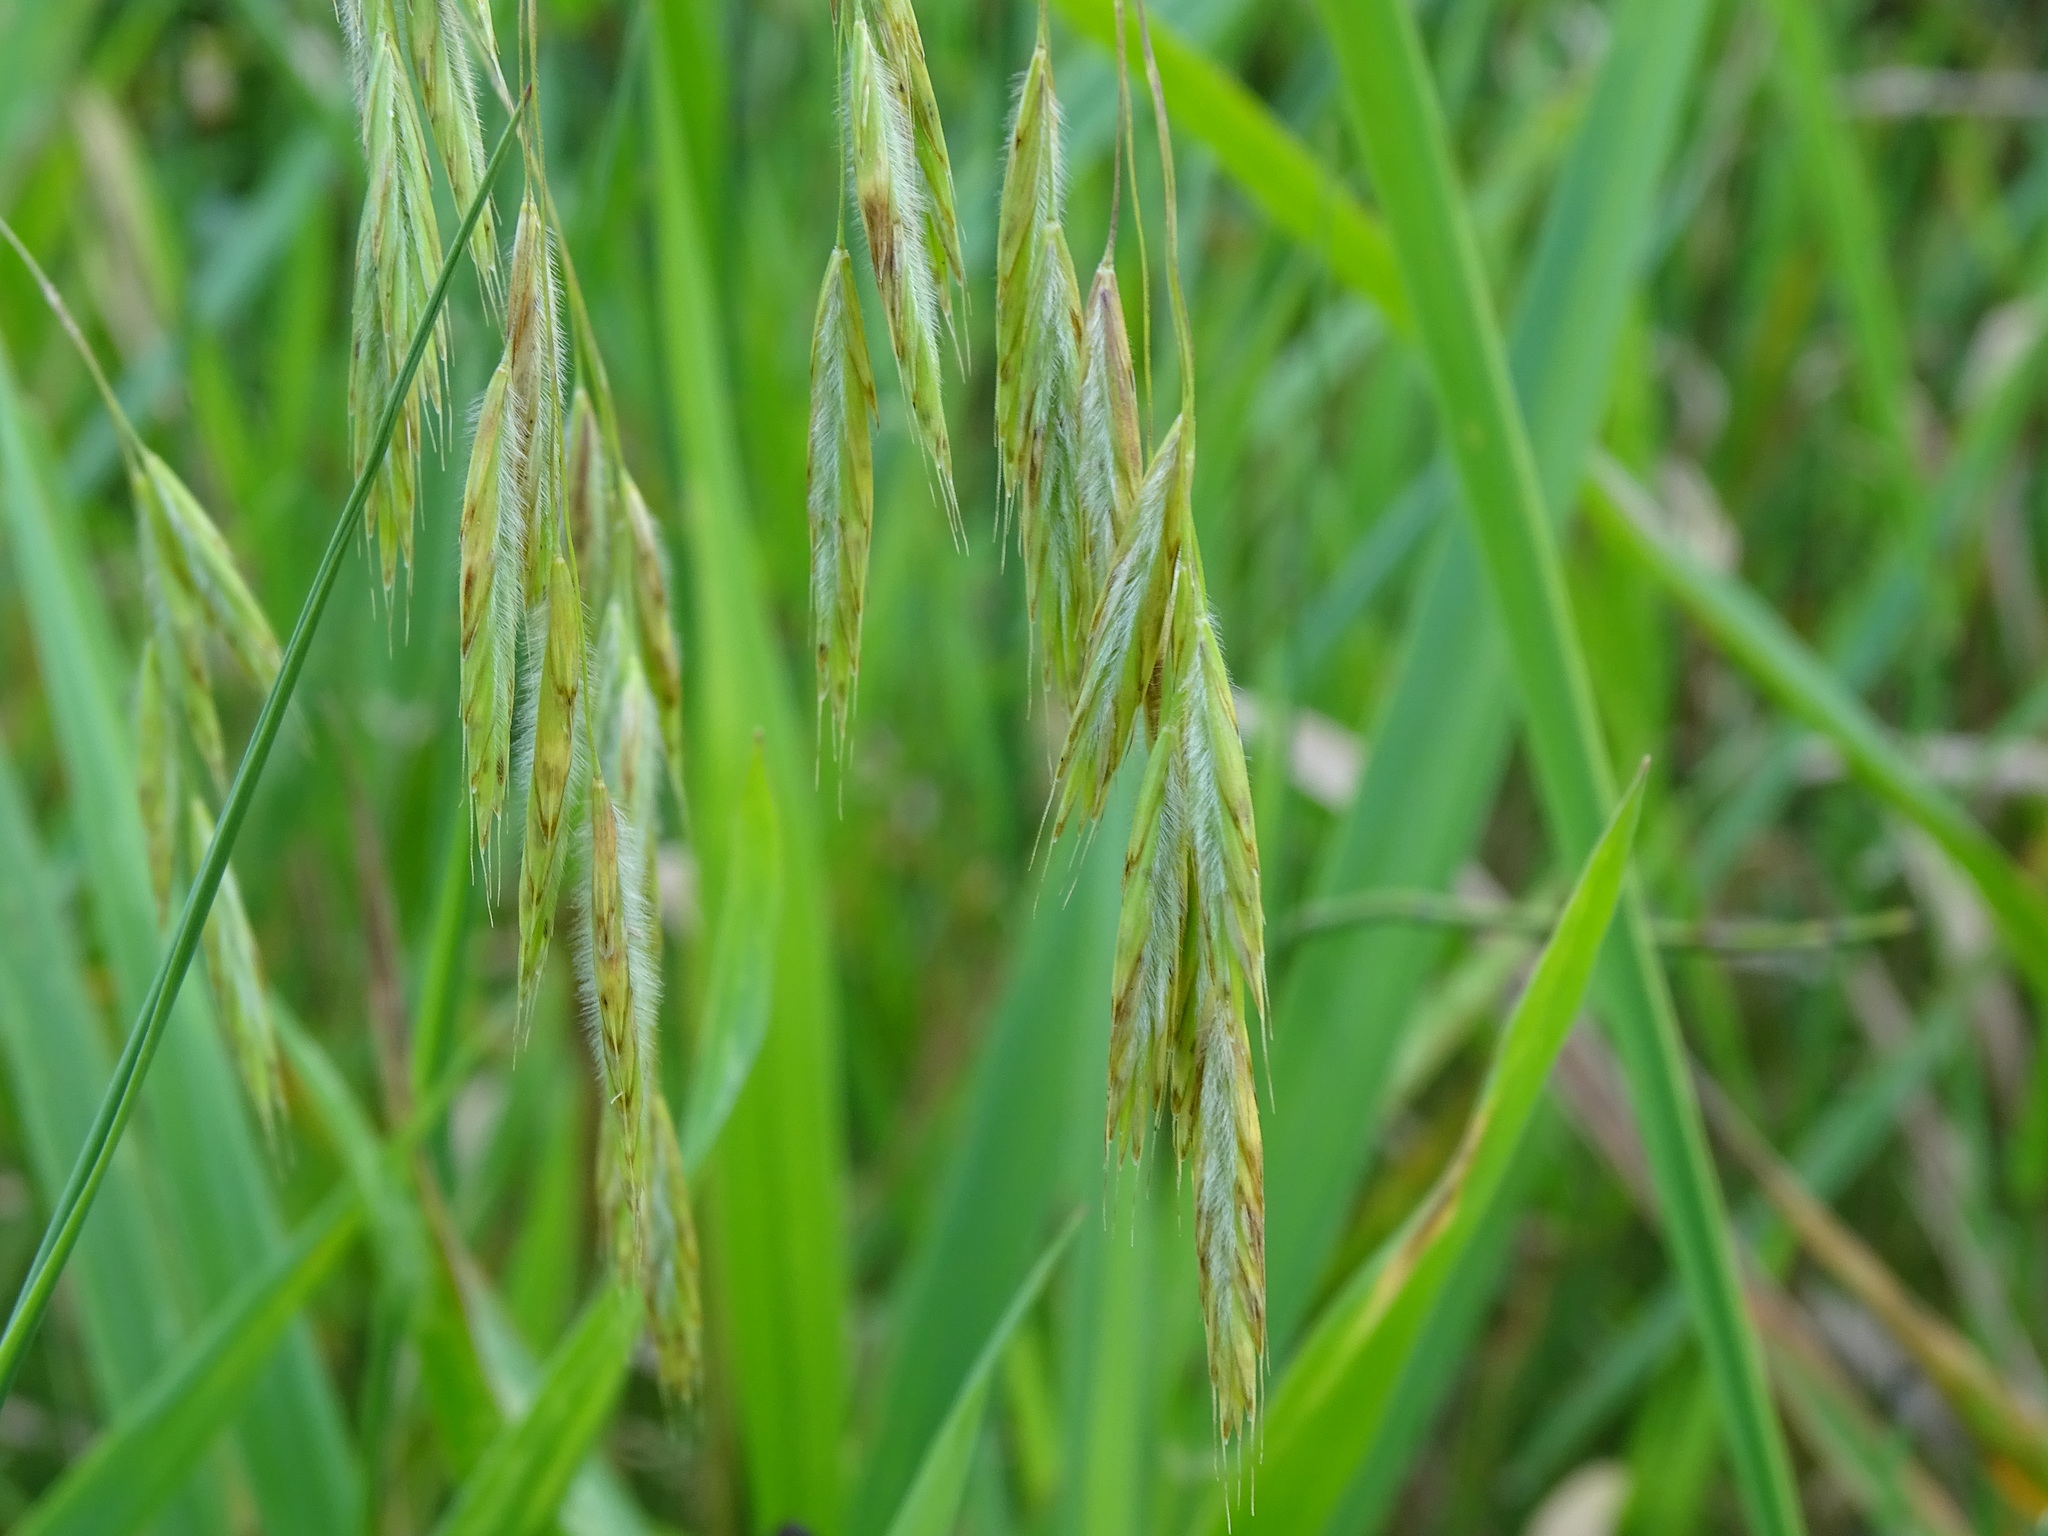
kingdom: Plantae
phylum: Tracheophyta
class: Liliopsida
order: Poales
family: Poaceae
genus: Bromus
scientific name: Bromus ciliatus
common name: Fringe brome
